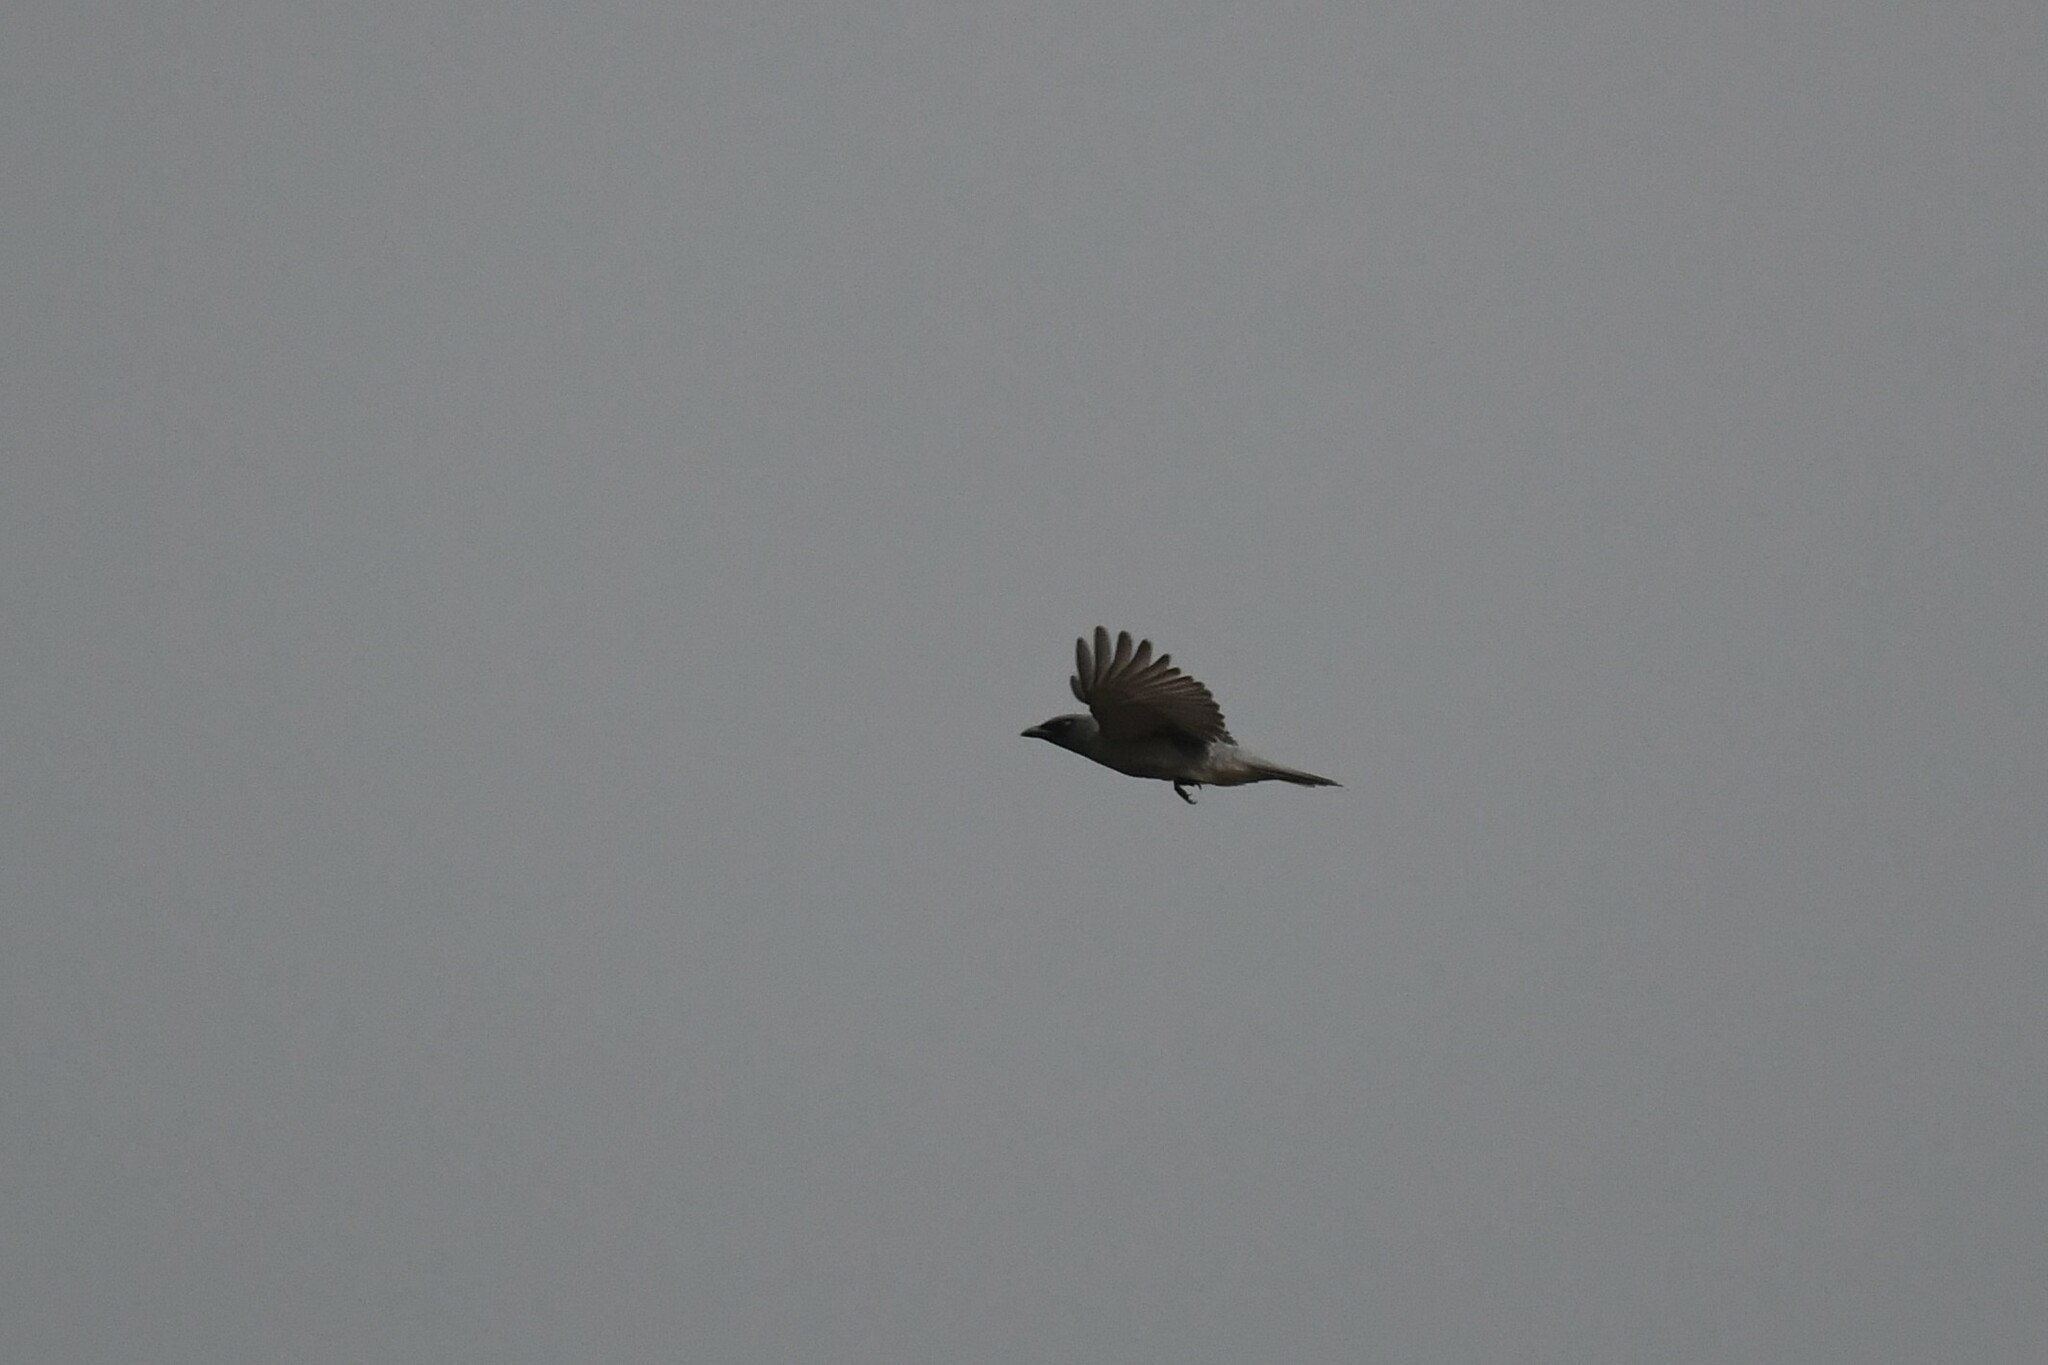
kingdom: Animalia
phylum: Chordata
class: Aves
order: Passeriformes
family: Campephagidae
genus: Coracina
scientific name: Coracina macei
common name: Large cuckooshrike
